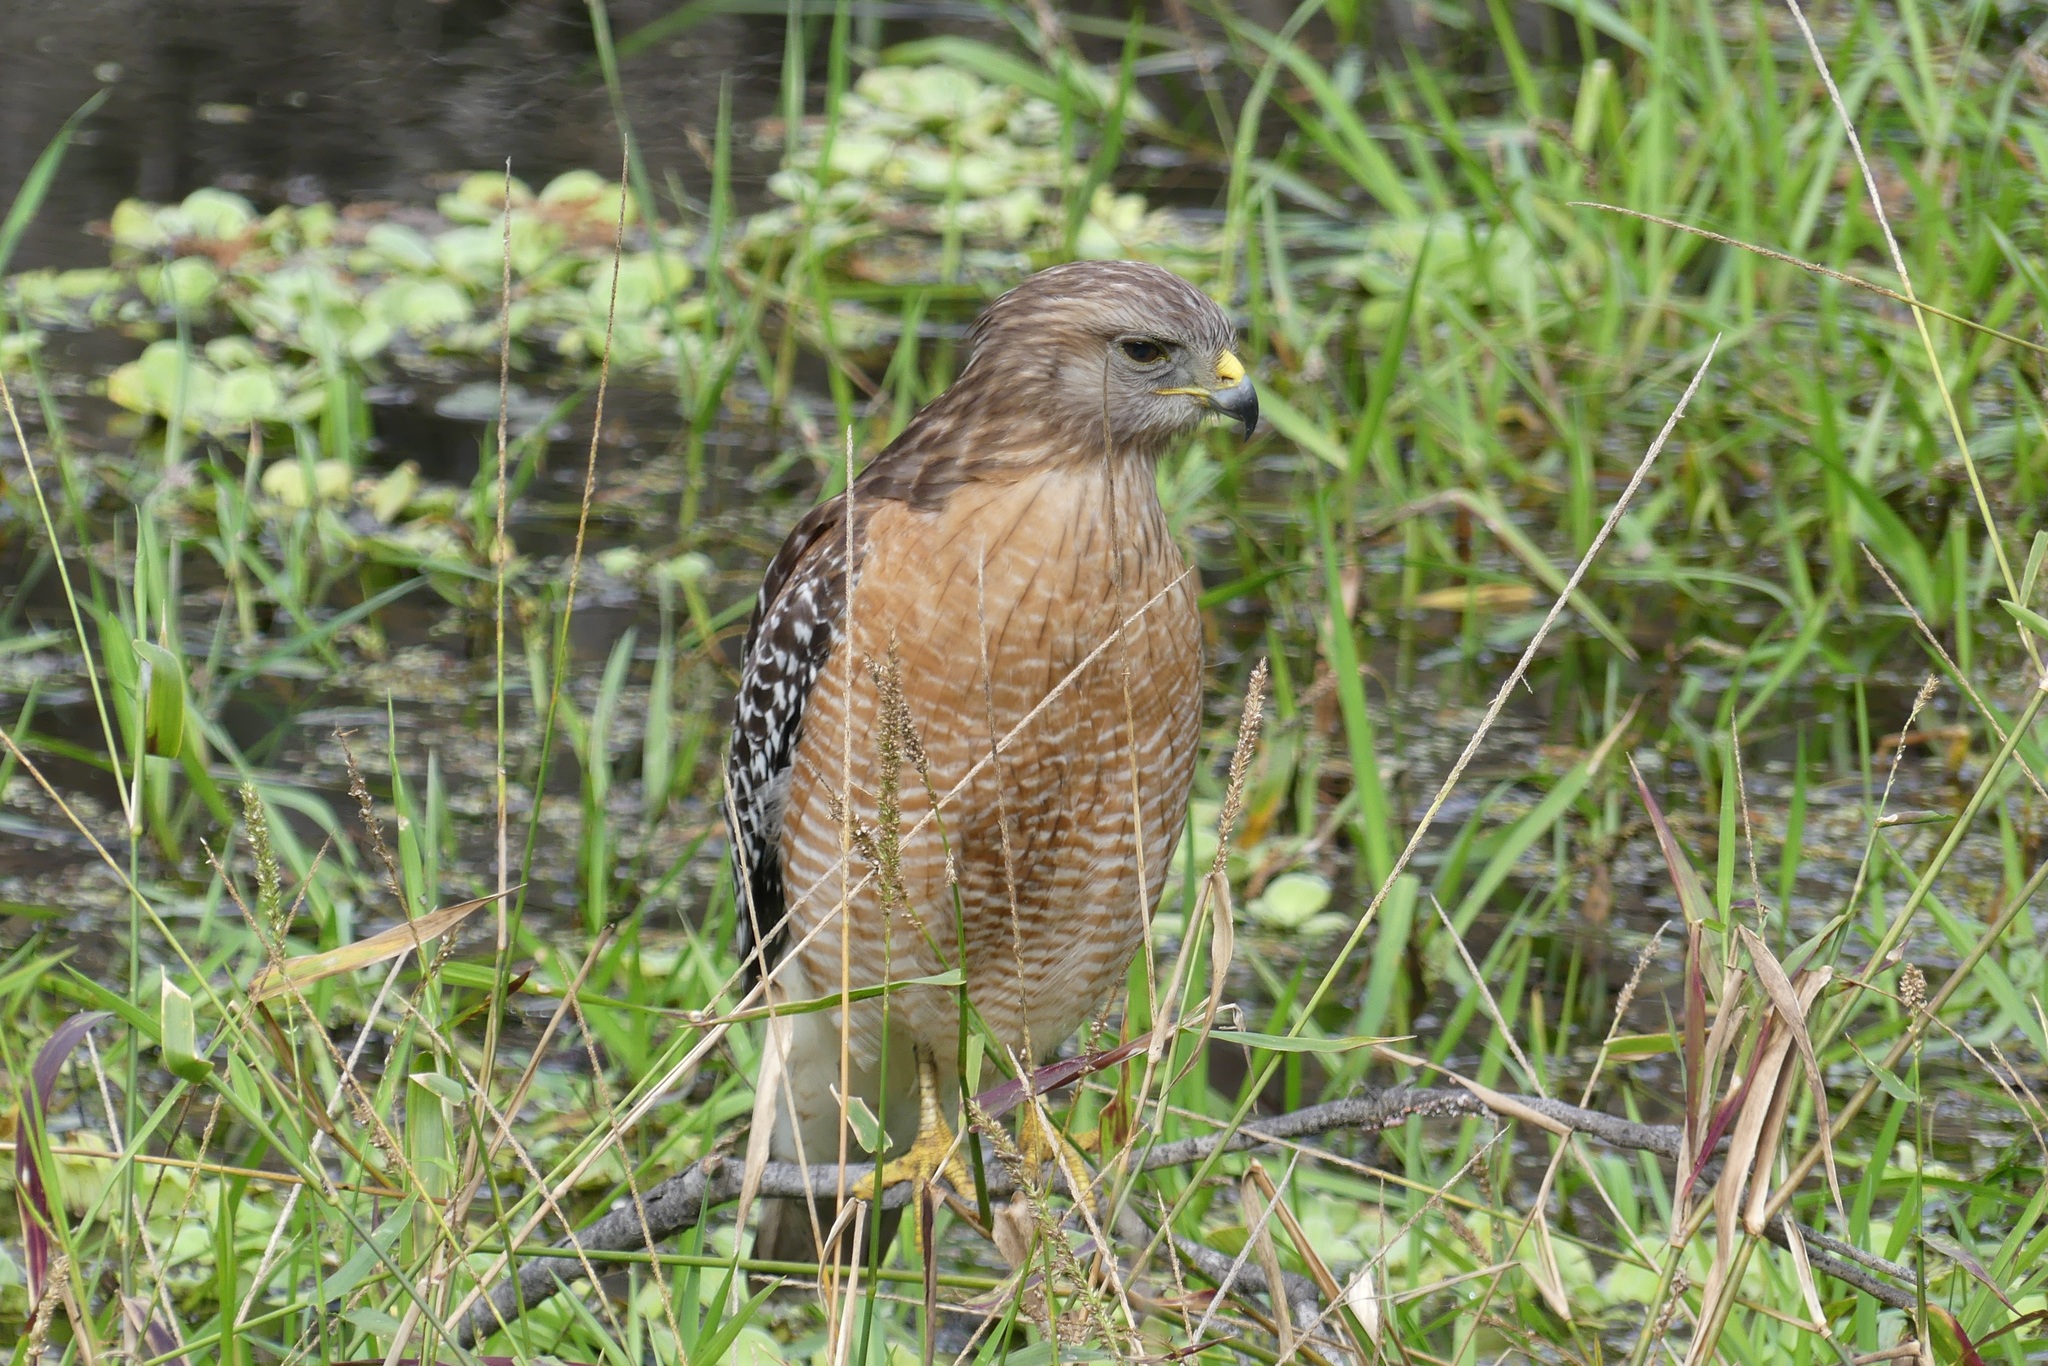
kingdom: Animalia
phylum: Chordata
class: Aves
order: Accipitriformes
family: Accipitridae
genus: Buteo
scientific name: Buteo lineatus
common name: Red-shouldered hawk
